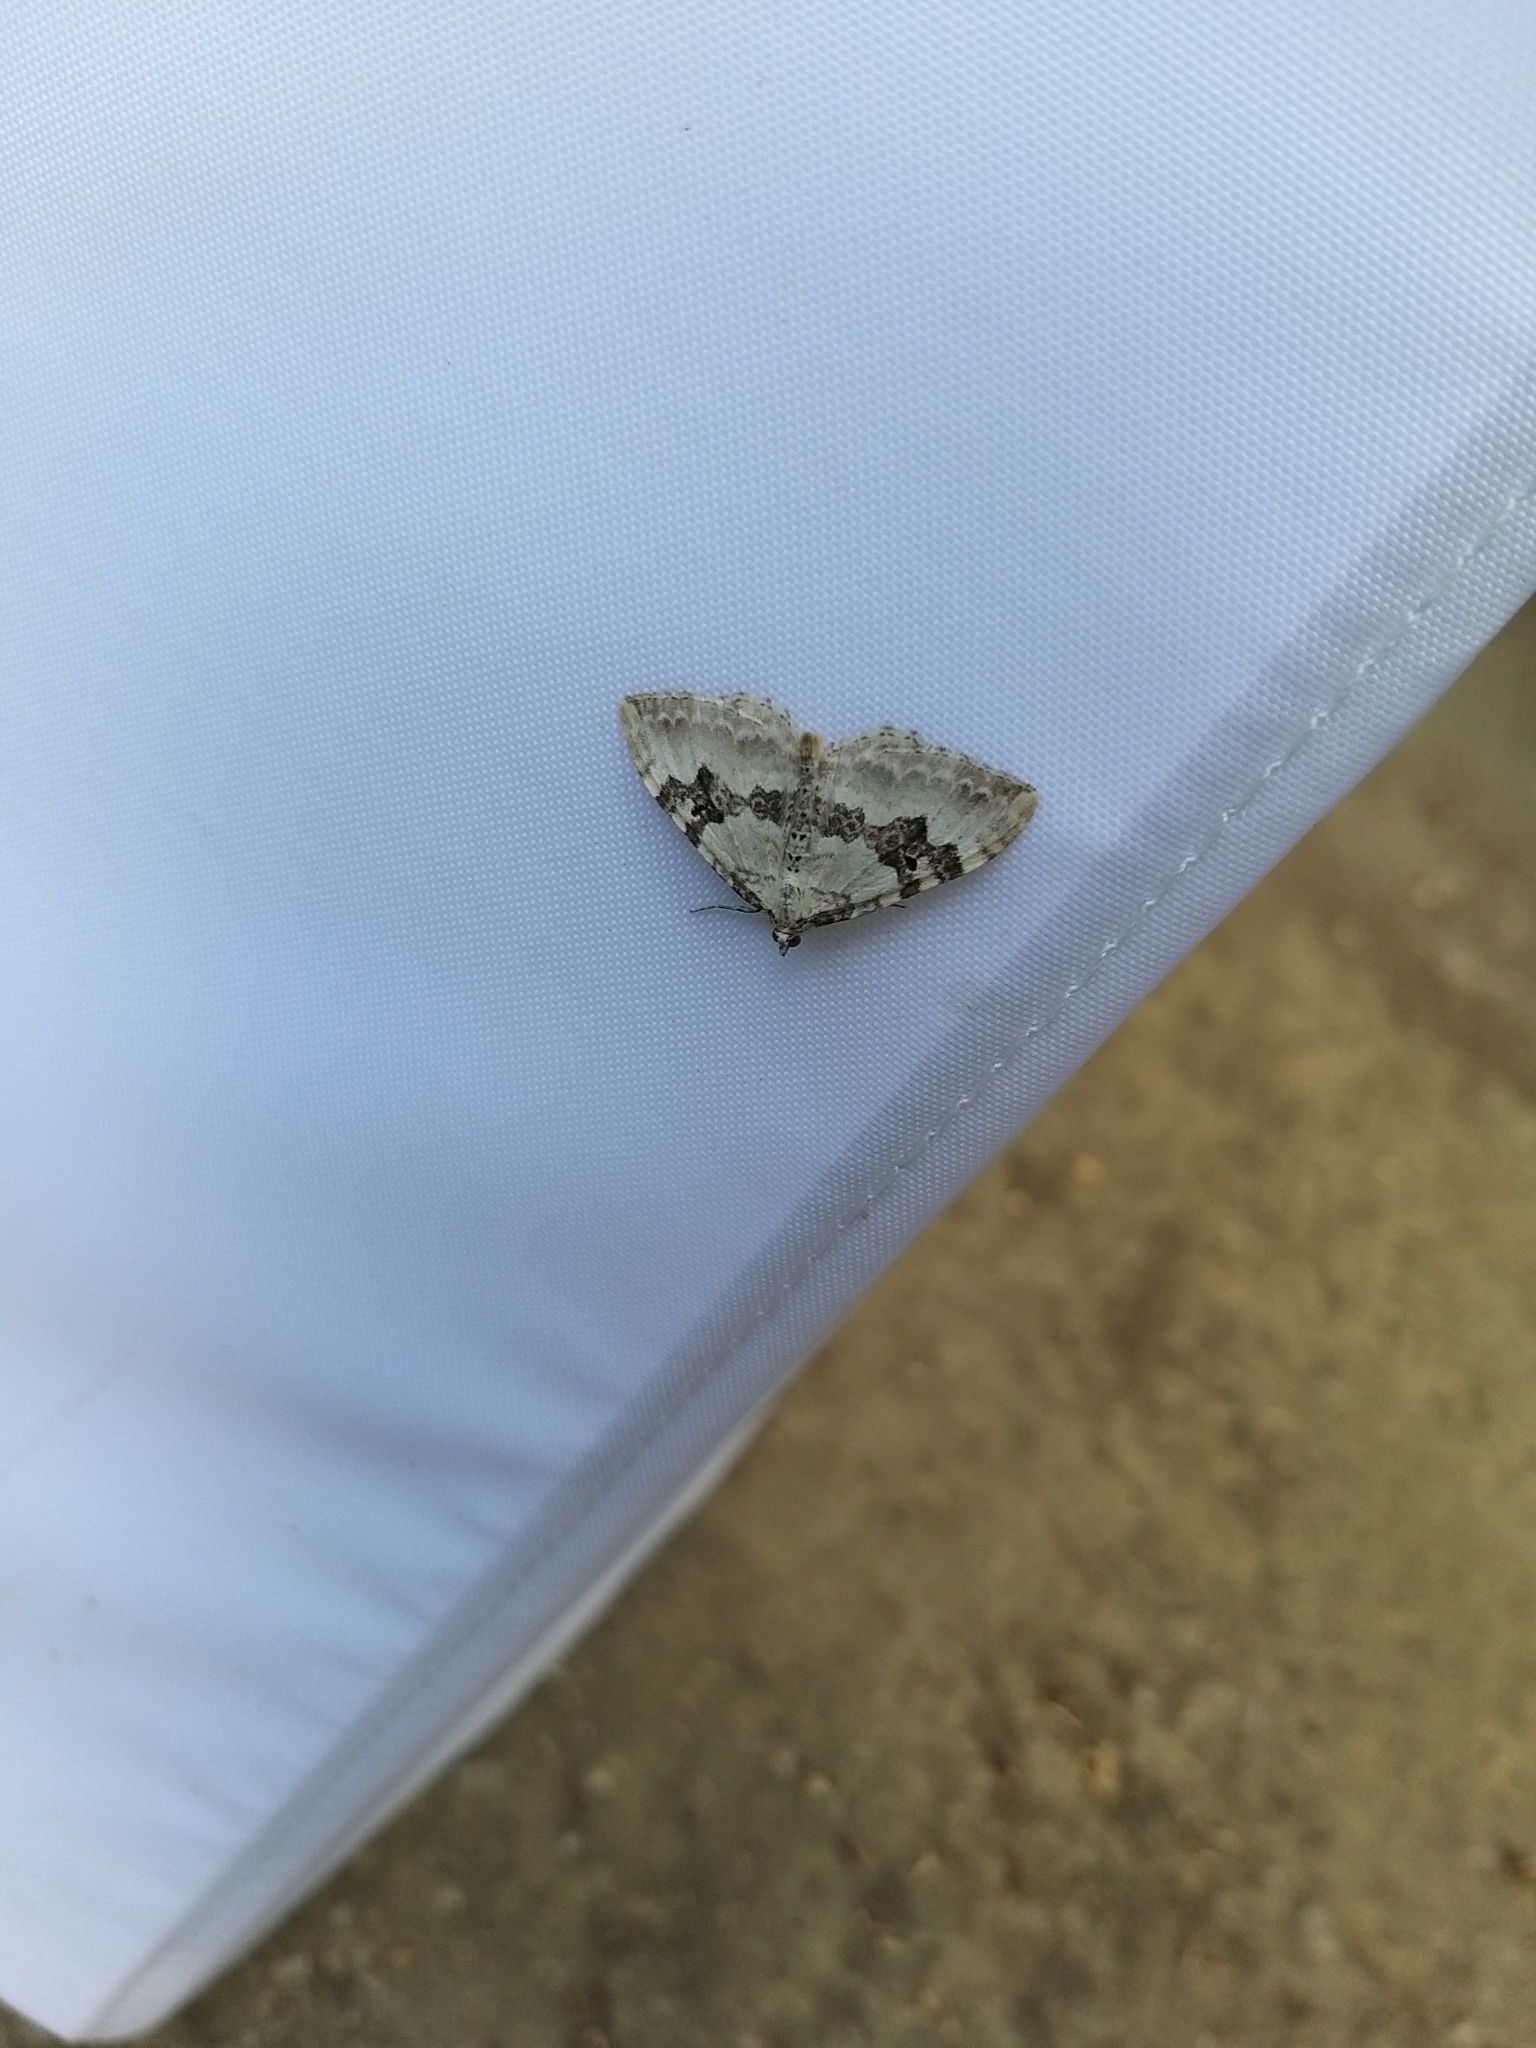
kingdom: Animalia
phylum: Arthropoda
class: Insecta
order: Lepidoptera
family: Geometridae
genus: Xanthorhoe
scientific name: Xanthorhoe montanata
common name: Silver-ground carpet
